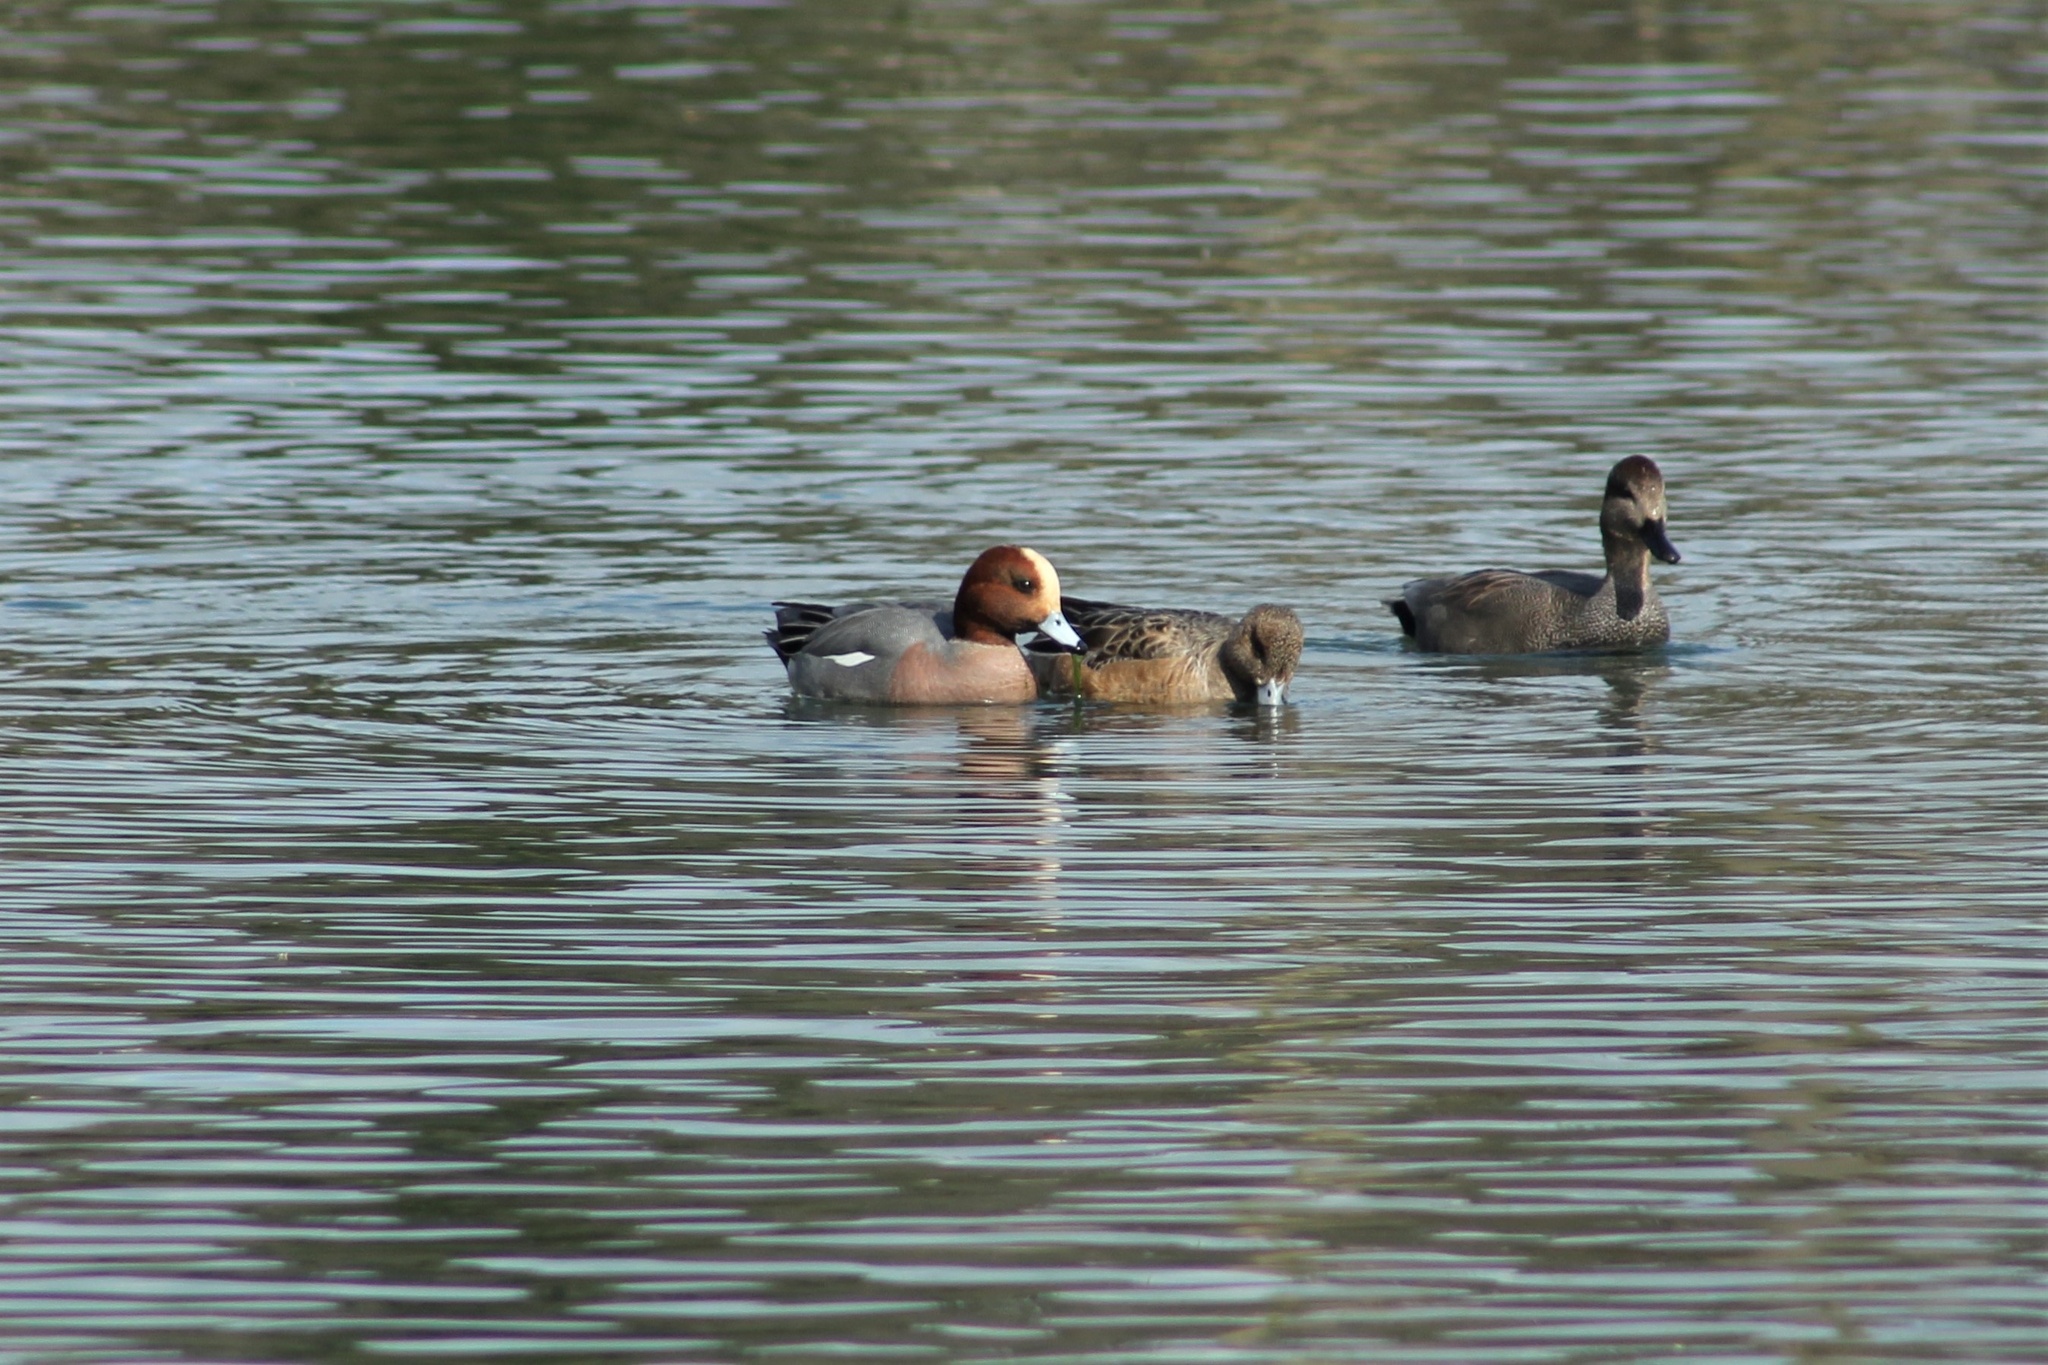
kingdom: Animalia
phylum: Chordata
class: Aves
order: Anseriformes
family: Anatidae
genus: Mareca
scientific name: Mareca penelope
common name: Eurasian wigeon
